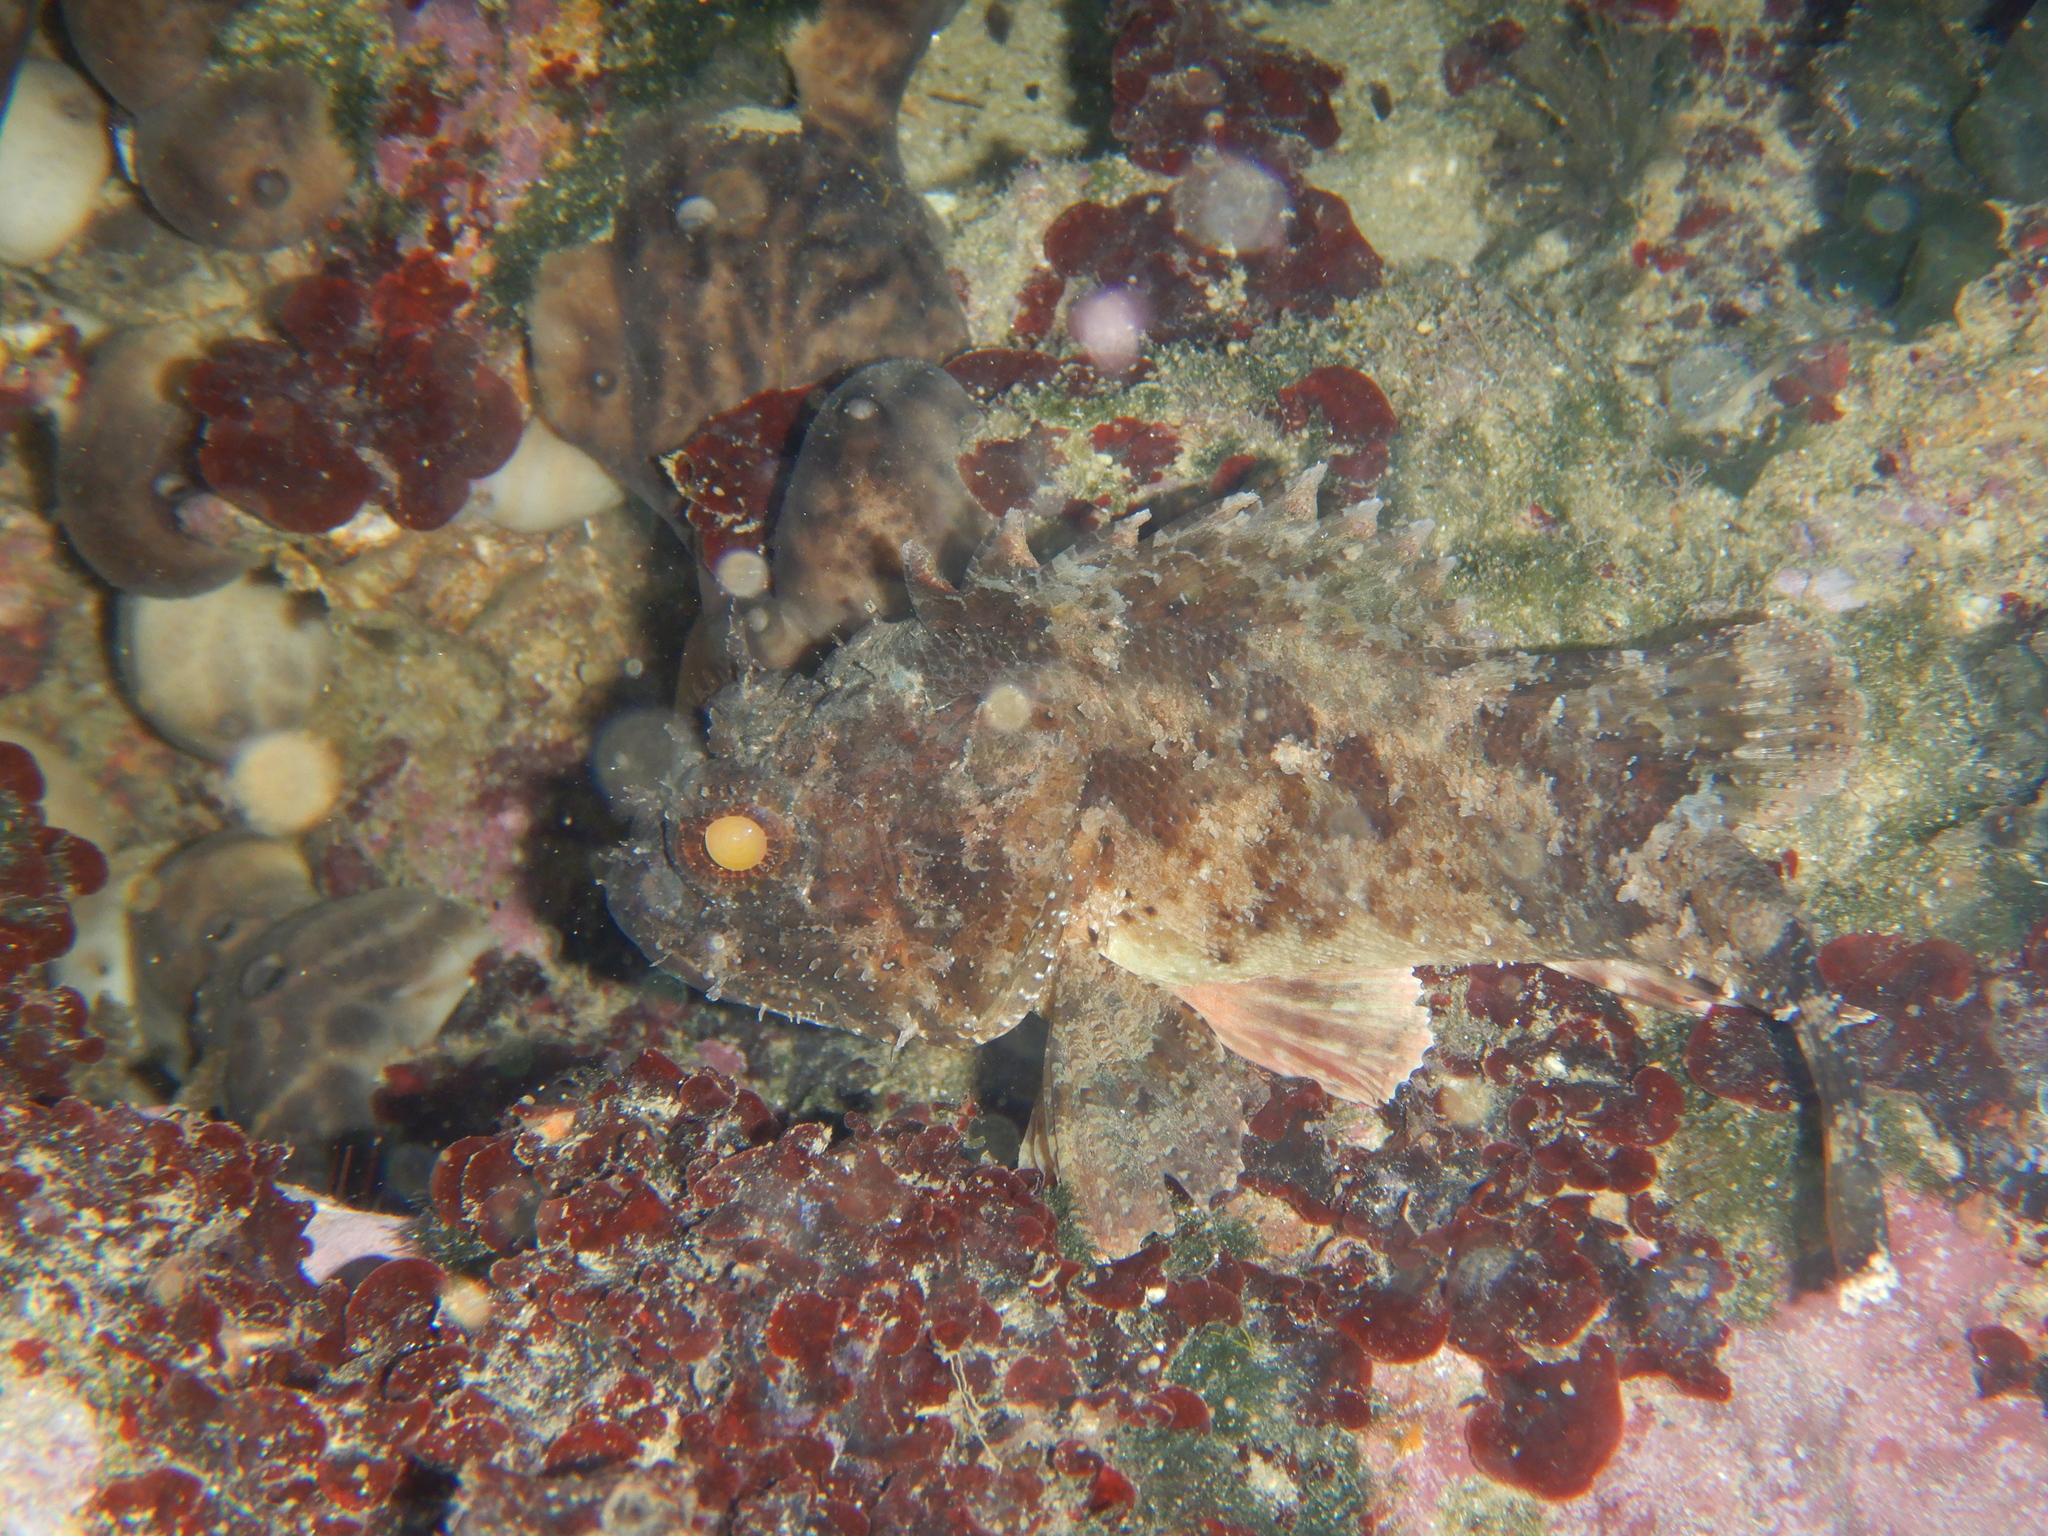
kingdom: Animalia
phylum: Chordata
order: Scorpaeniformes
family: Scorpaenidae
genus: Scorpaena
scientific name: Scorpaena porcus
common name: Black scorpionfish
